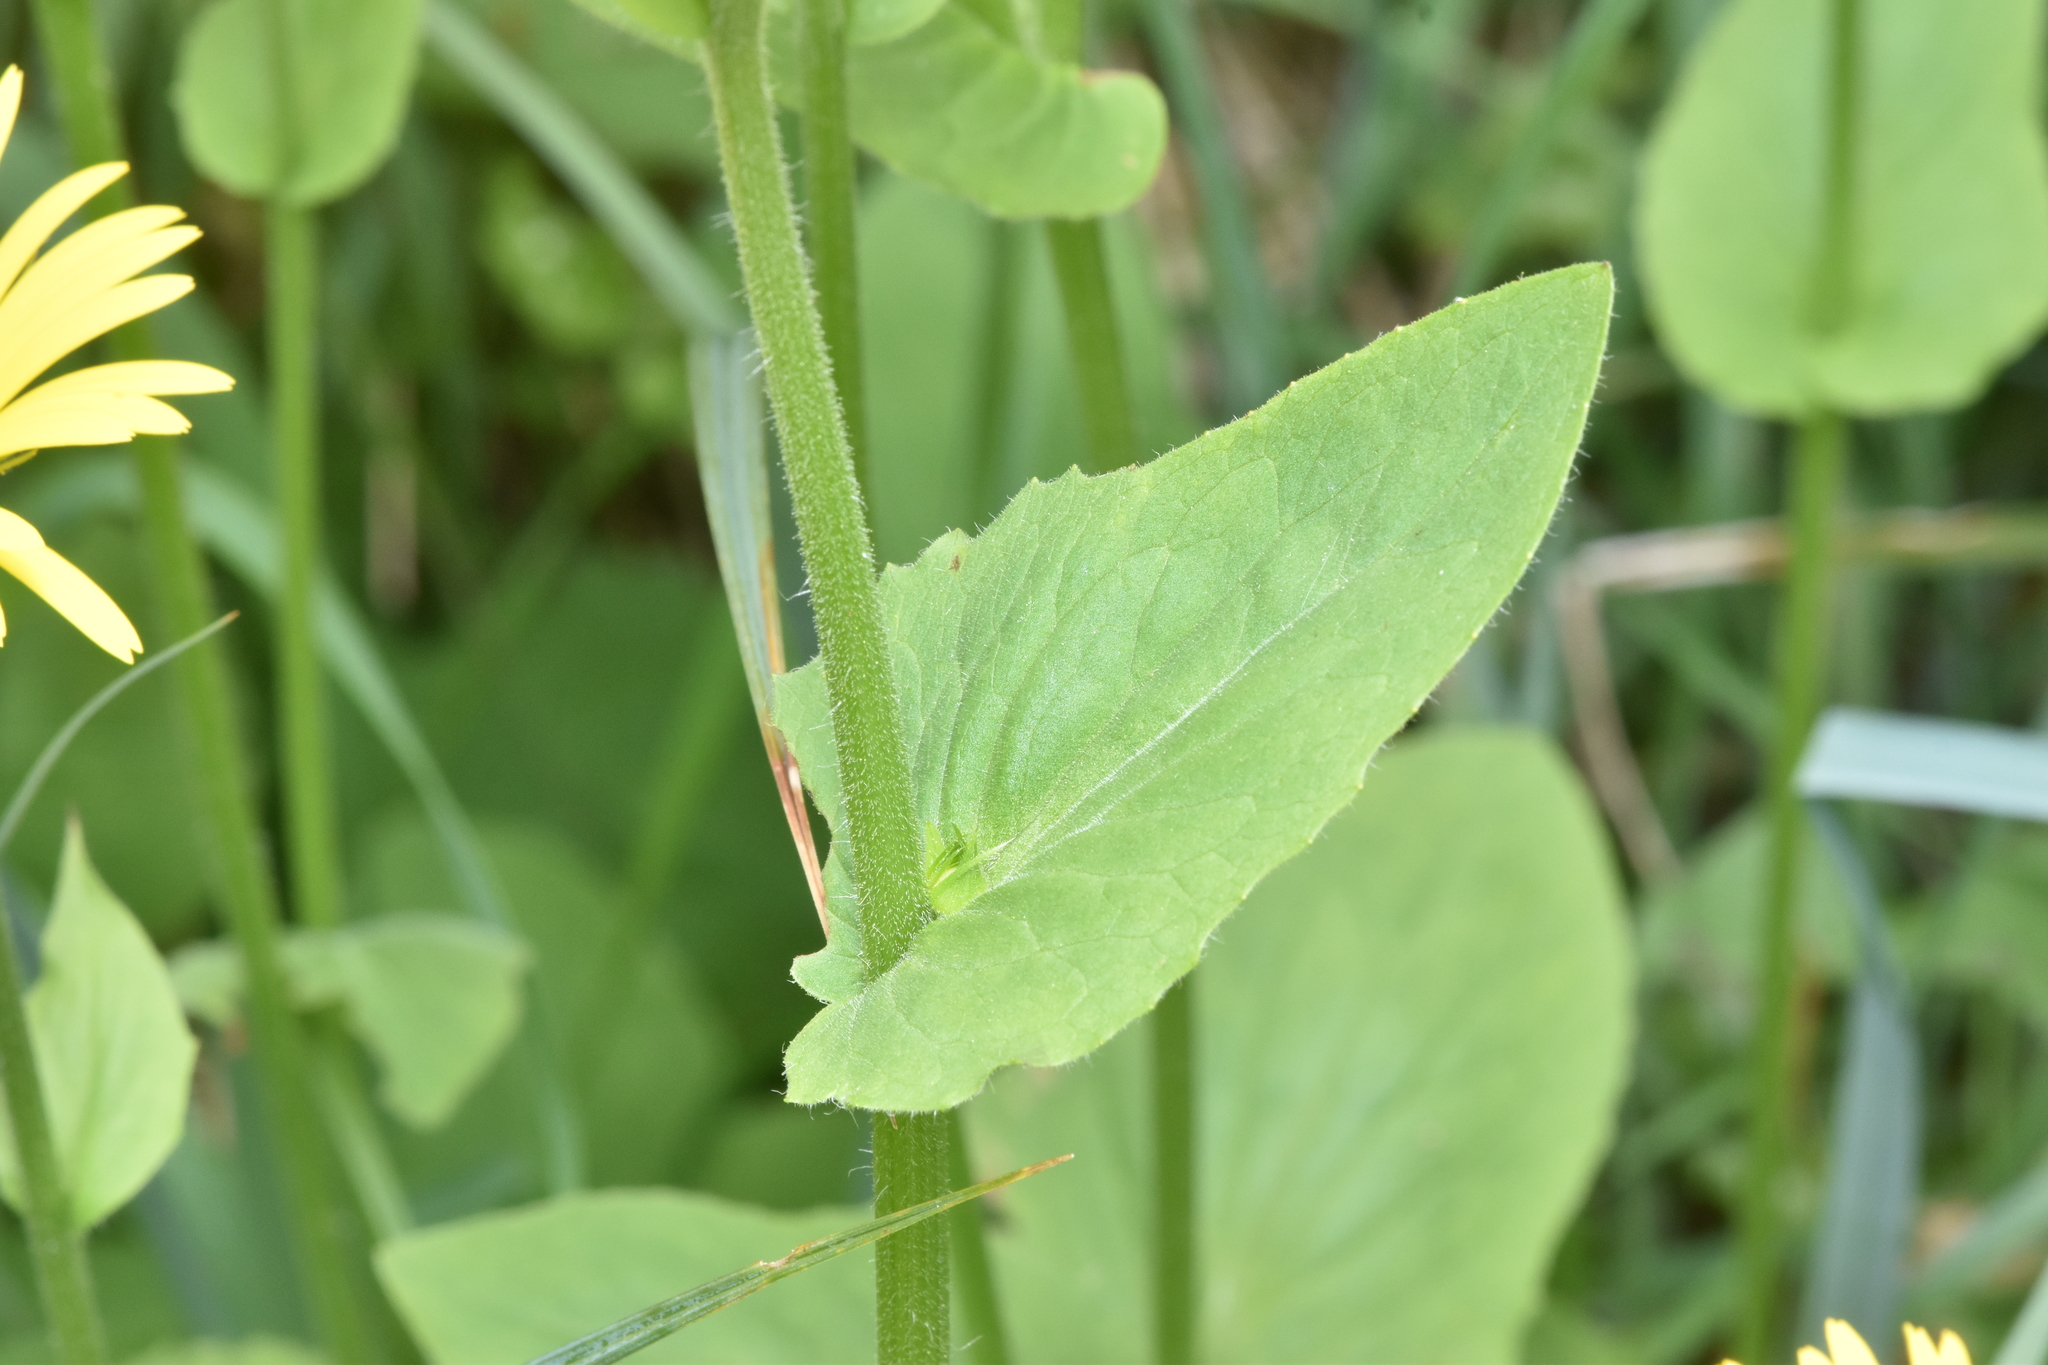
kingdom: Plantae
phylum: Tracheophyta
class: Magnoliopsida
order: Asterales
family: Asteraceae
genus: Doronicum
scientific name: Doronicum pardalianches
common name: Leopard's-bane
